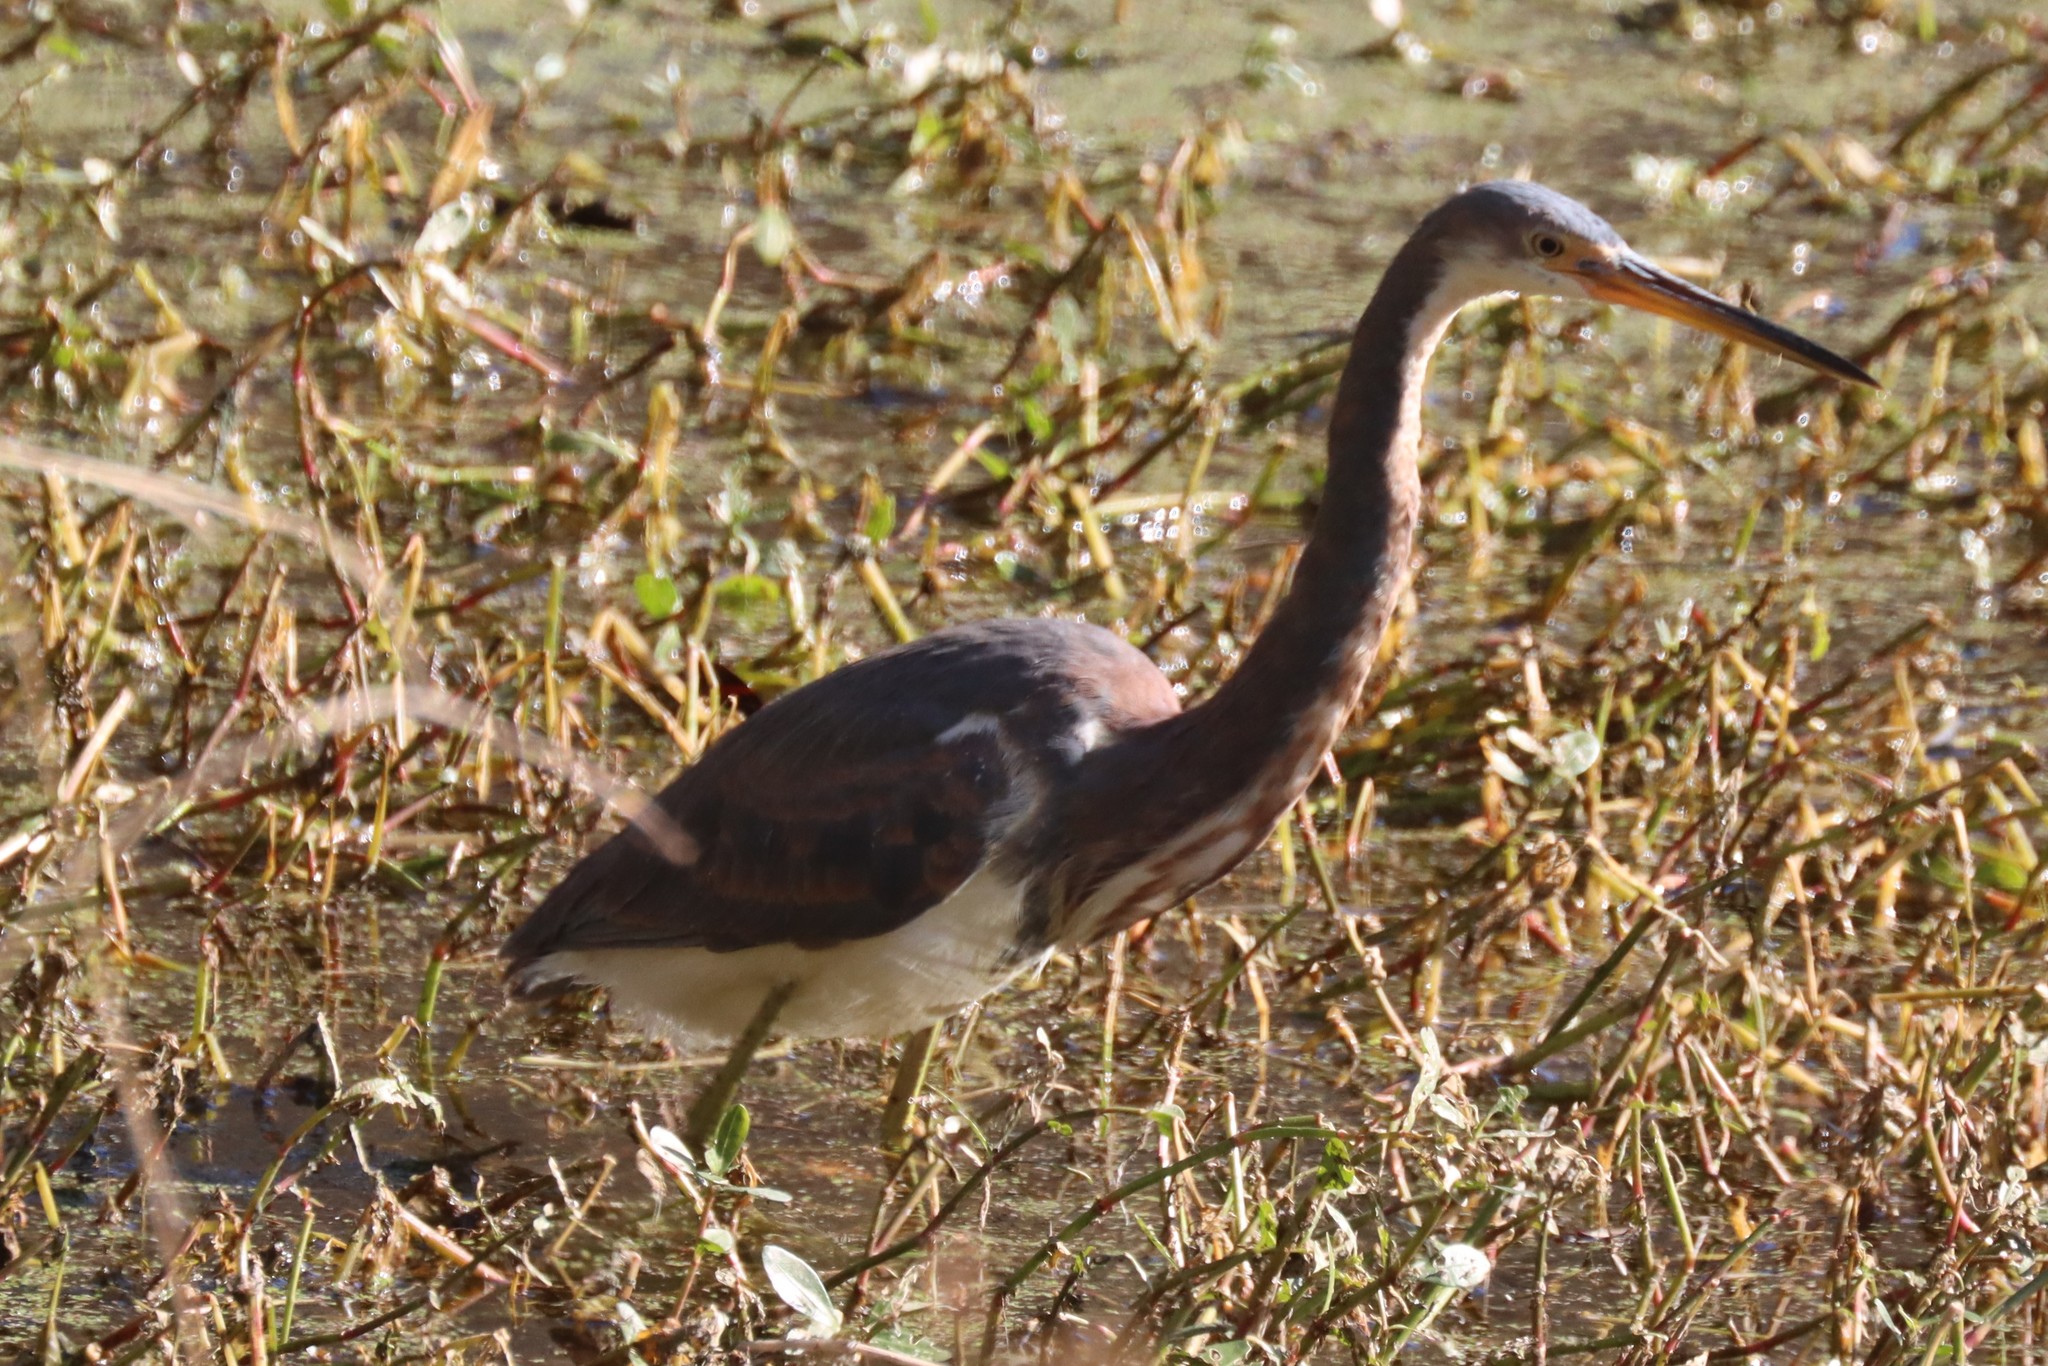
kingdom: Animalia
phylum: Chordata
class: Aves
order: Pelecaniformes
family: Ardeidae
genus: Egretta
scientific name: Egretta tricolor
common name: Tricolored heron
